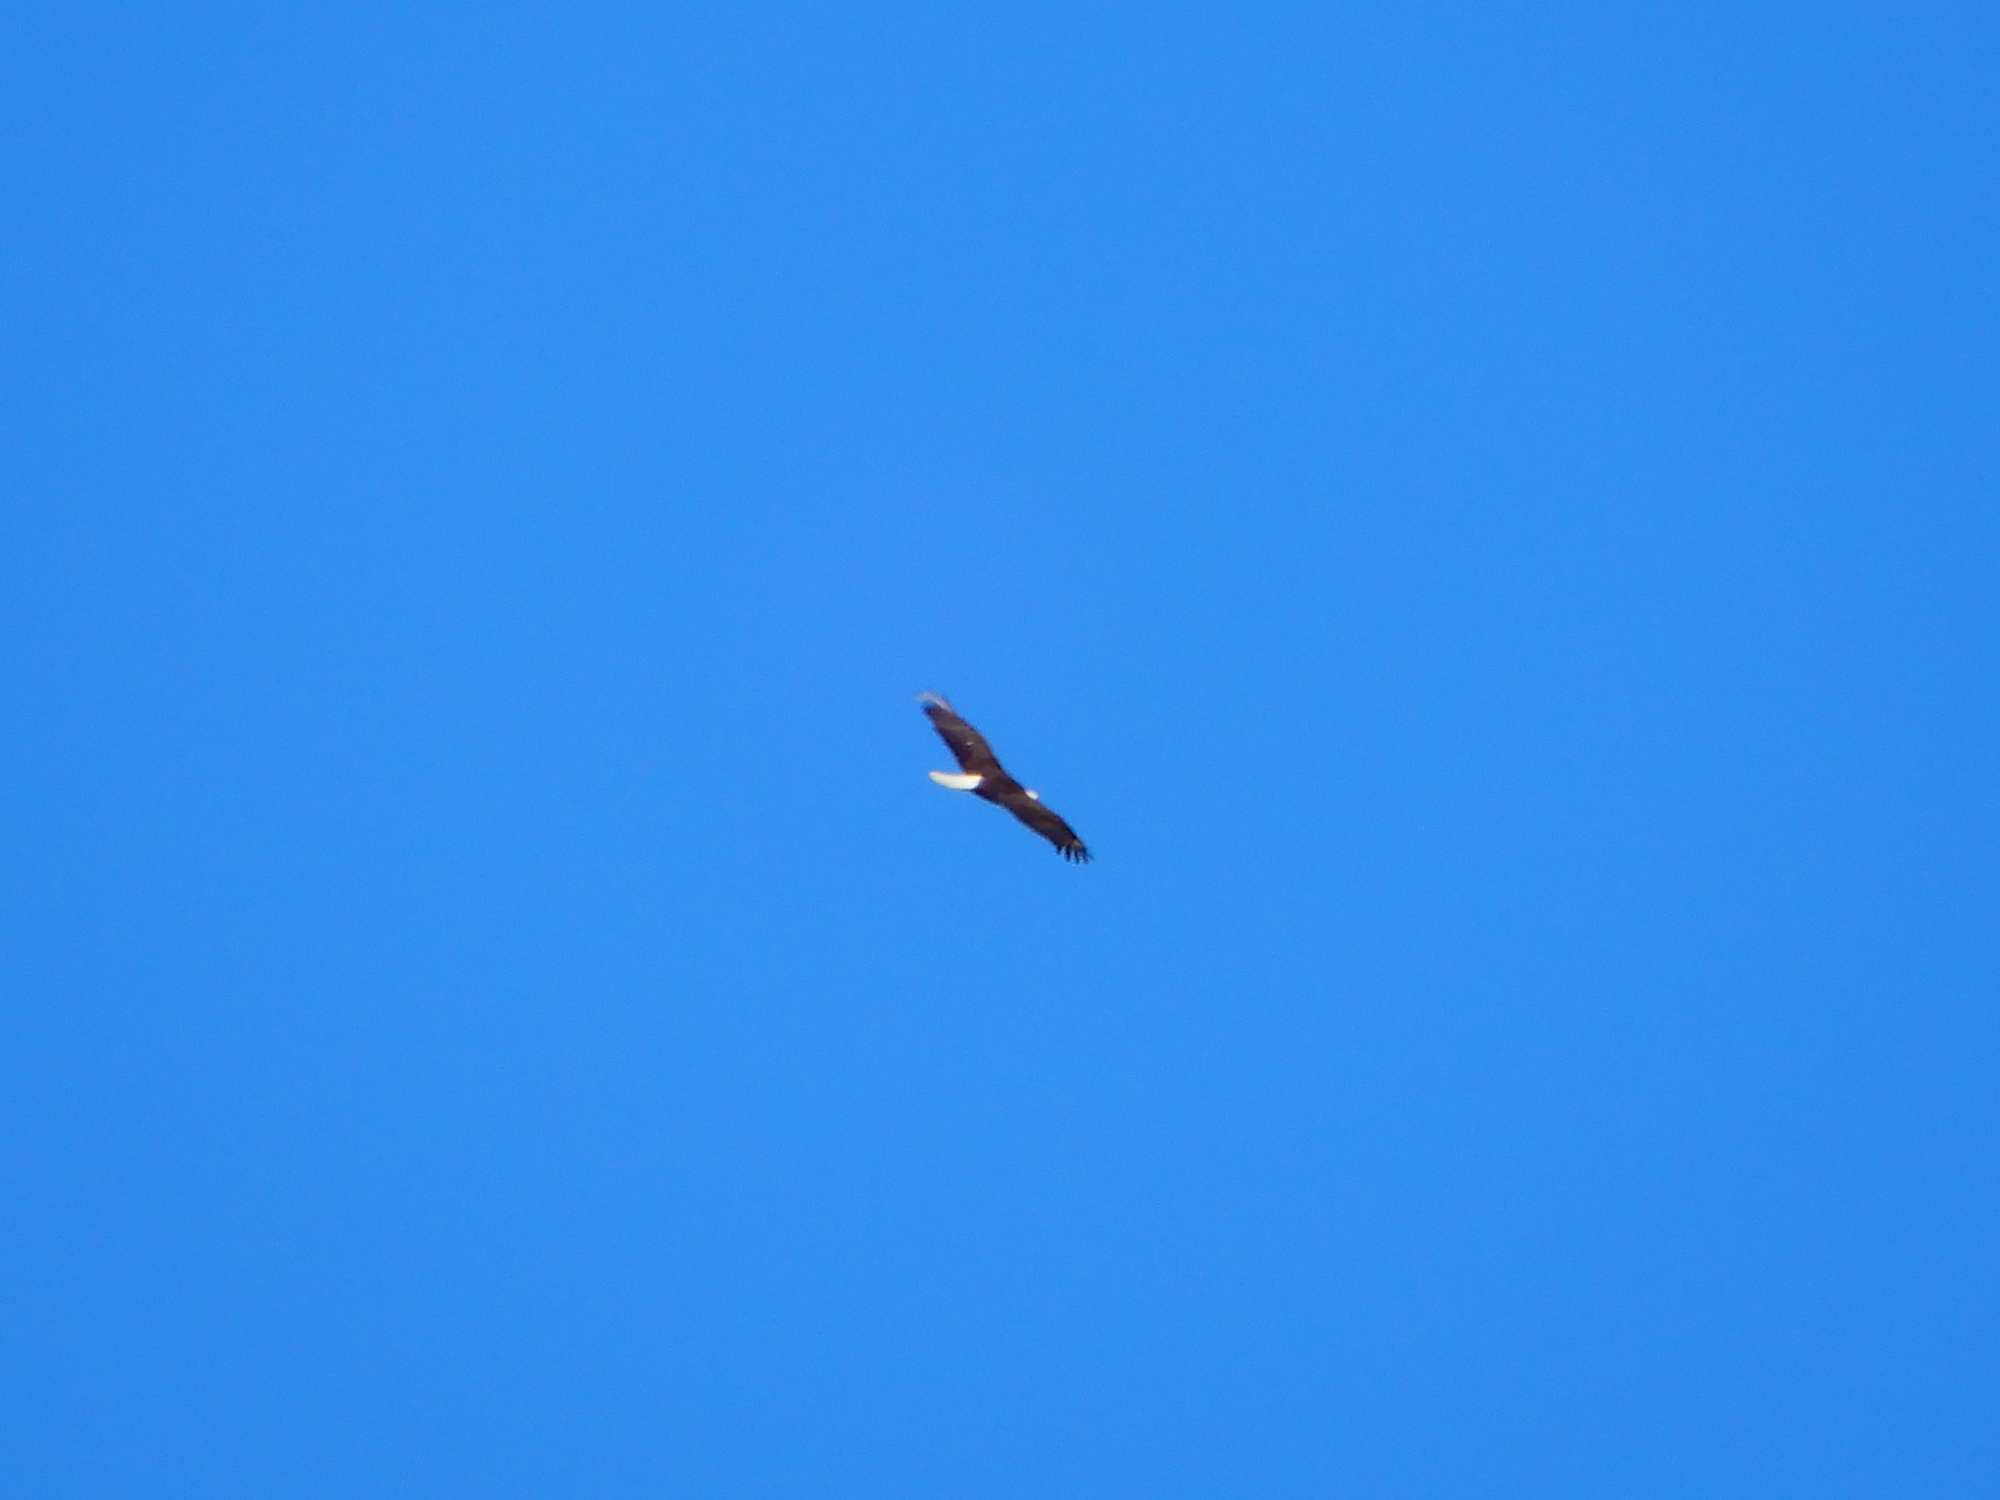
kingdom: Animalia
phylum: Chordata
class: Aves
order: Accipitriformes
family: Accipitridae
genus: Haliaeetus
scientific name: Haliaeetus leucocephalus
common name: Bald eagle
